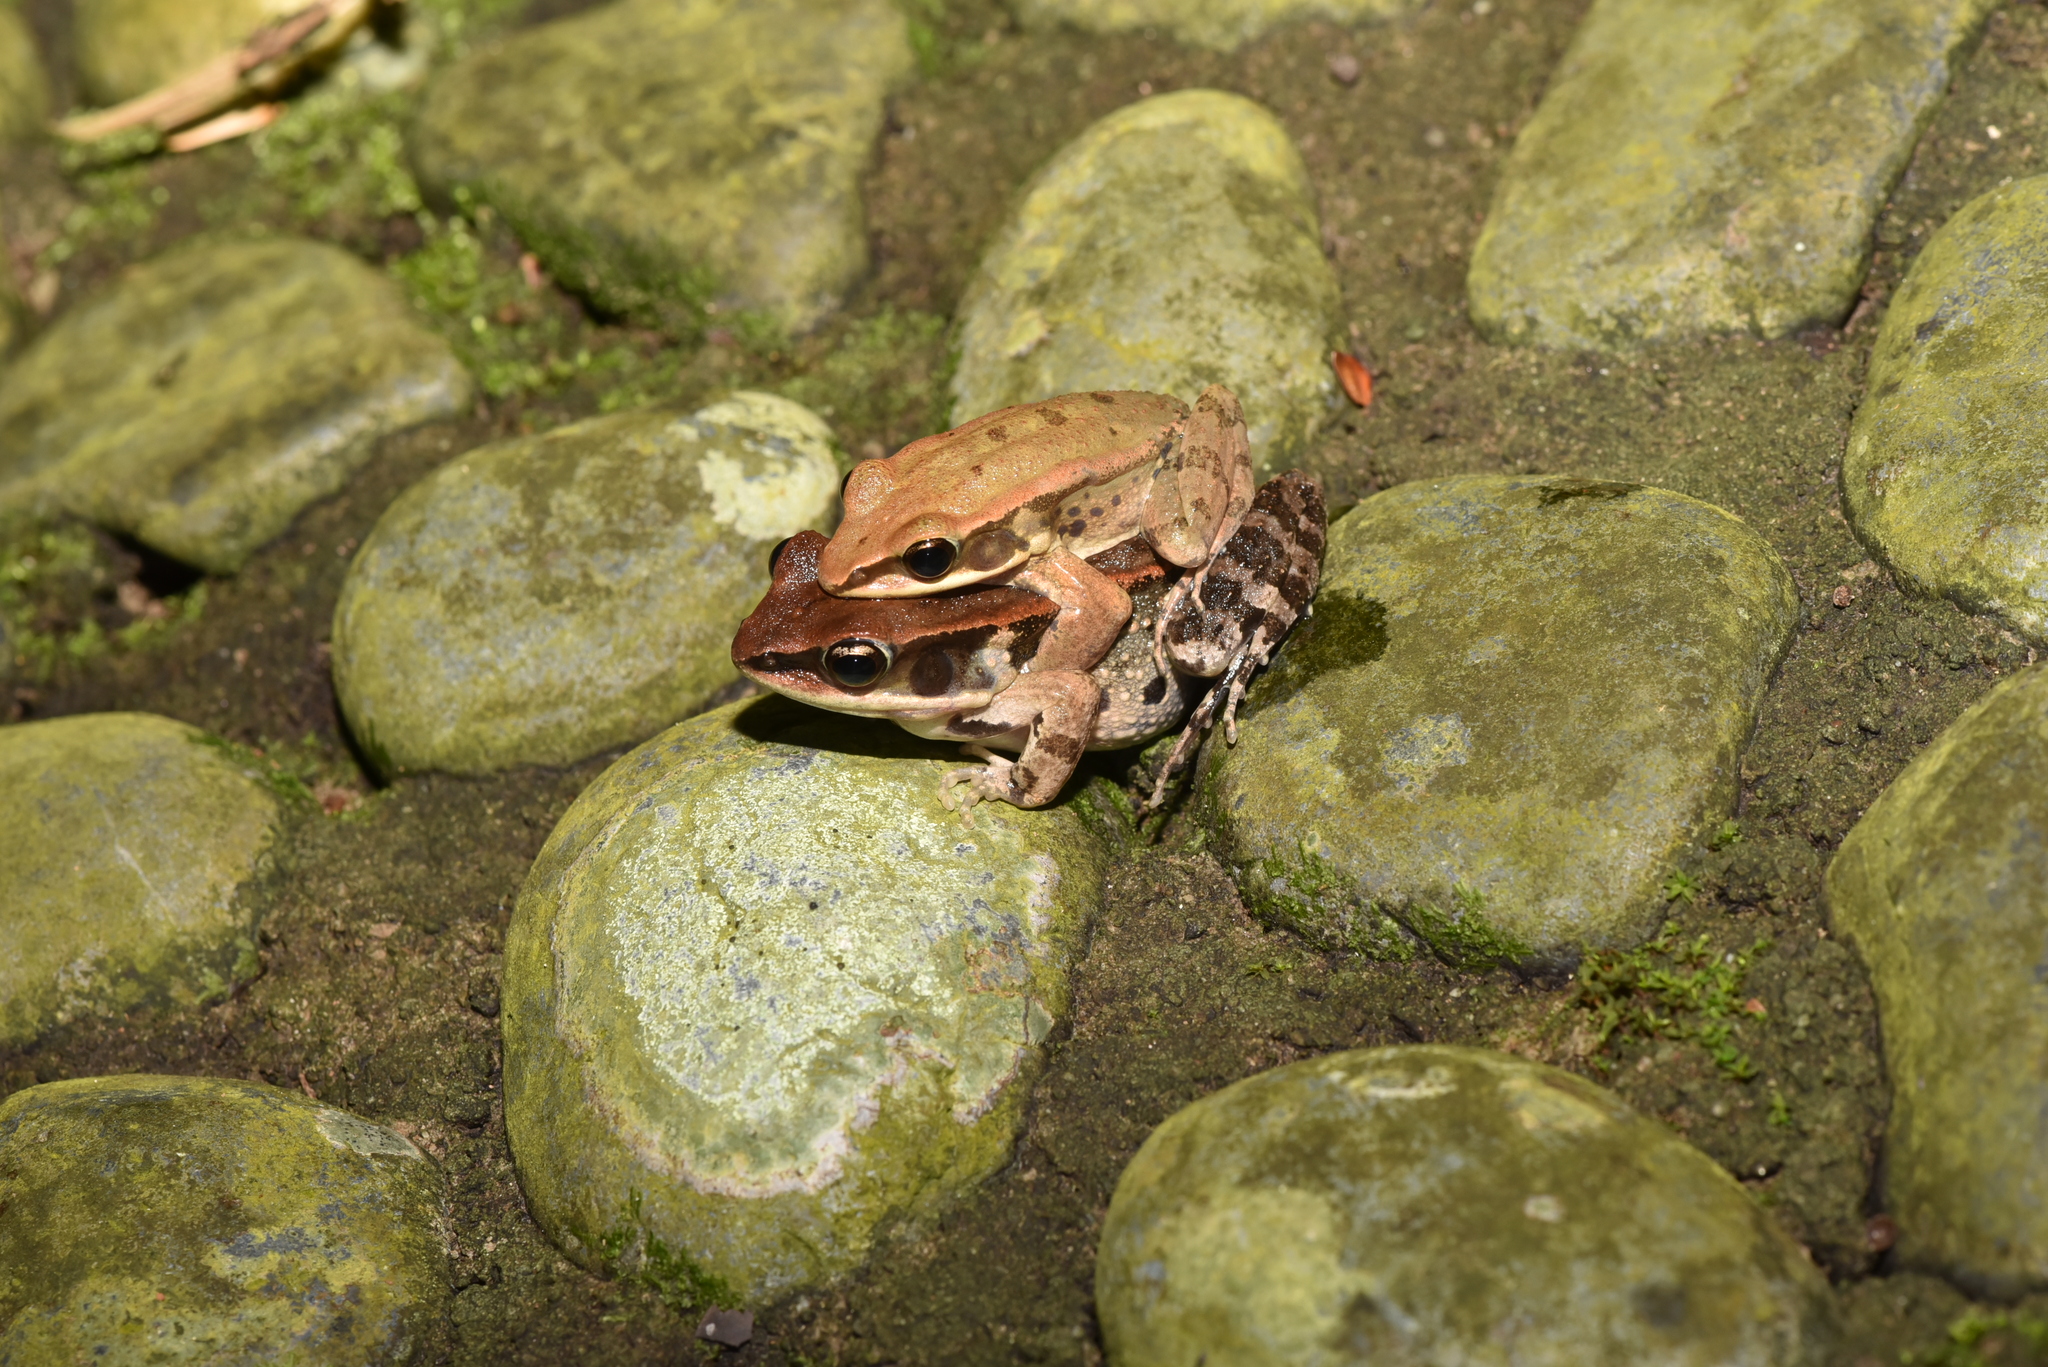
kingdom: Animalia
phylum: Chordata
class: Amphibia
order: Anura
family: Ranidae
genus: Hylarana
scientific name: Hylarana latouchii
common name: Broad-folded frog
